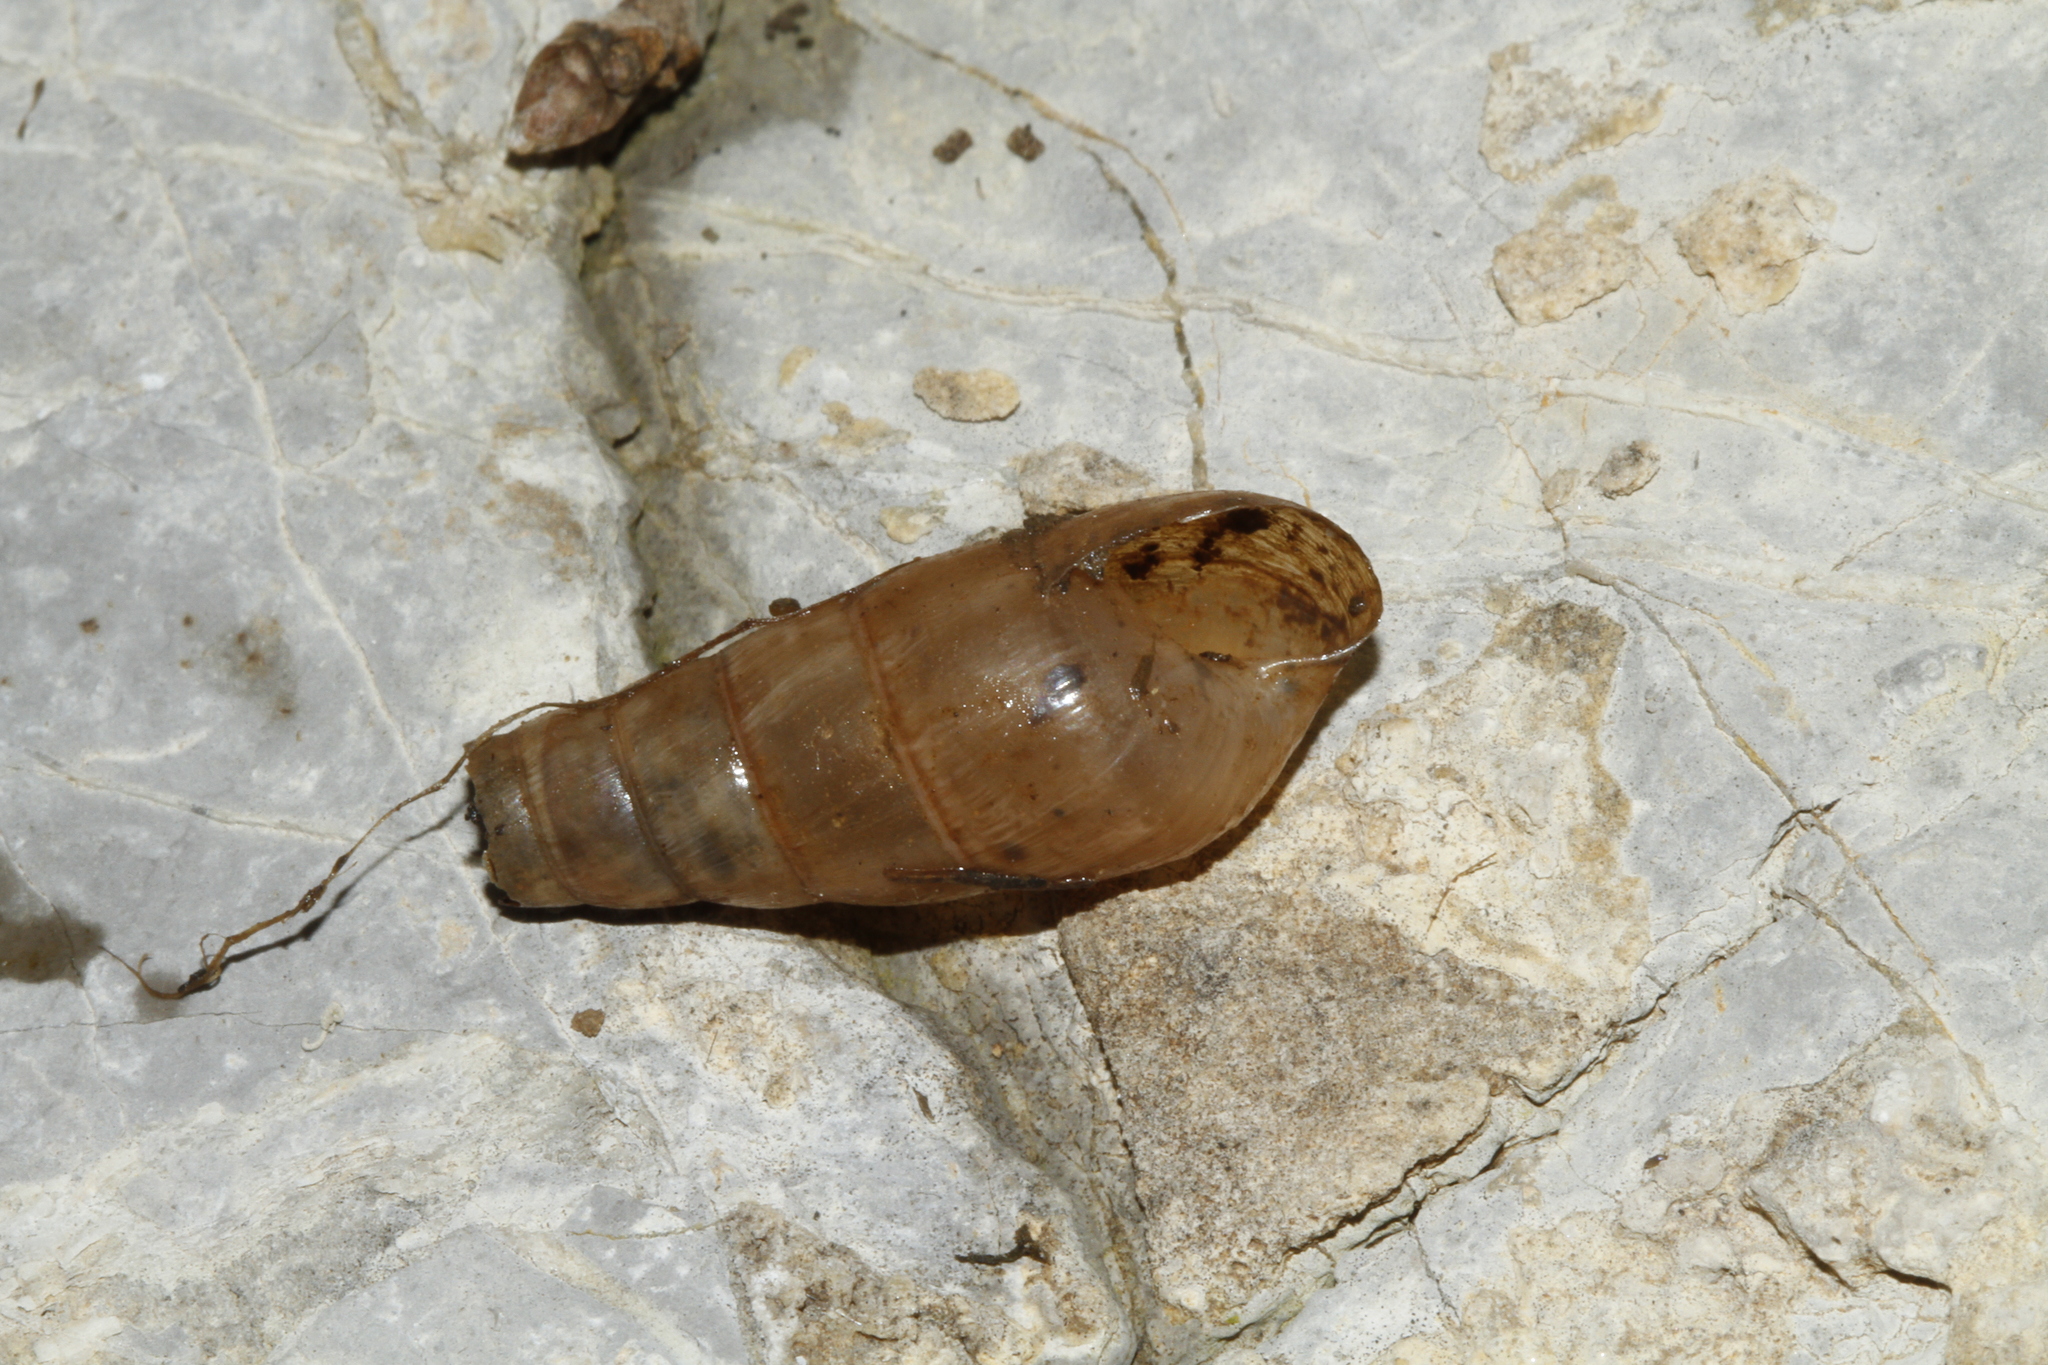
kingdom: Animalia
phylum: Mollusca
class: Gastropoda
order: Stylommatophora
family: Achatinidae
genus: Rumina
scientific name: Rumina decollata
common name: Decollate snail
